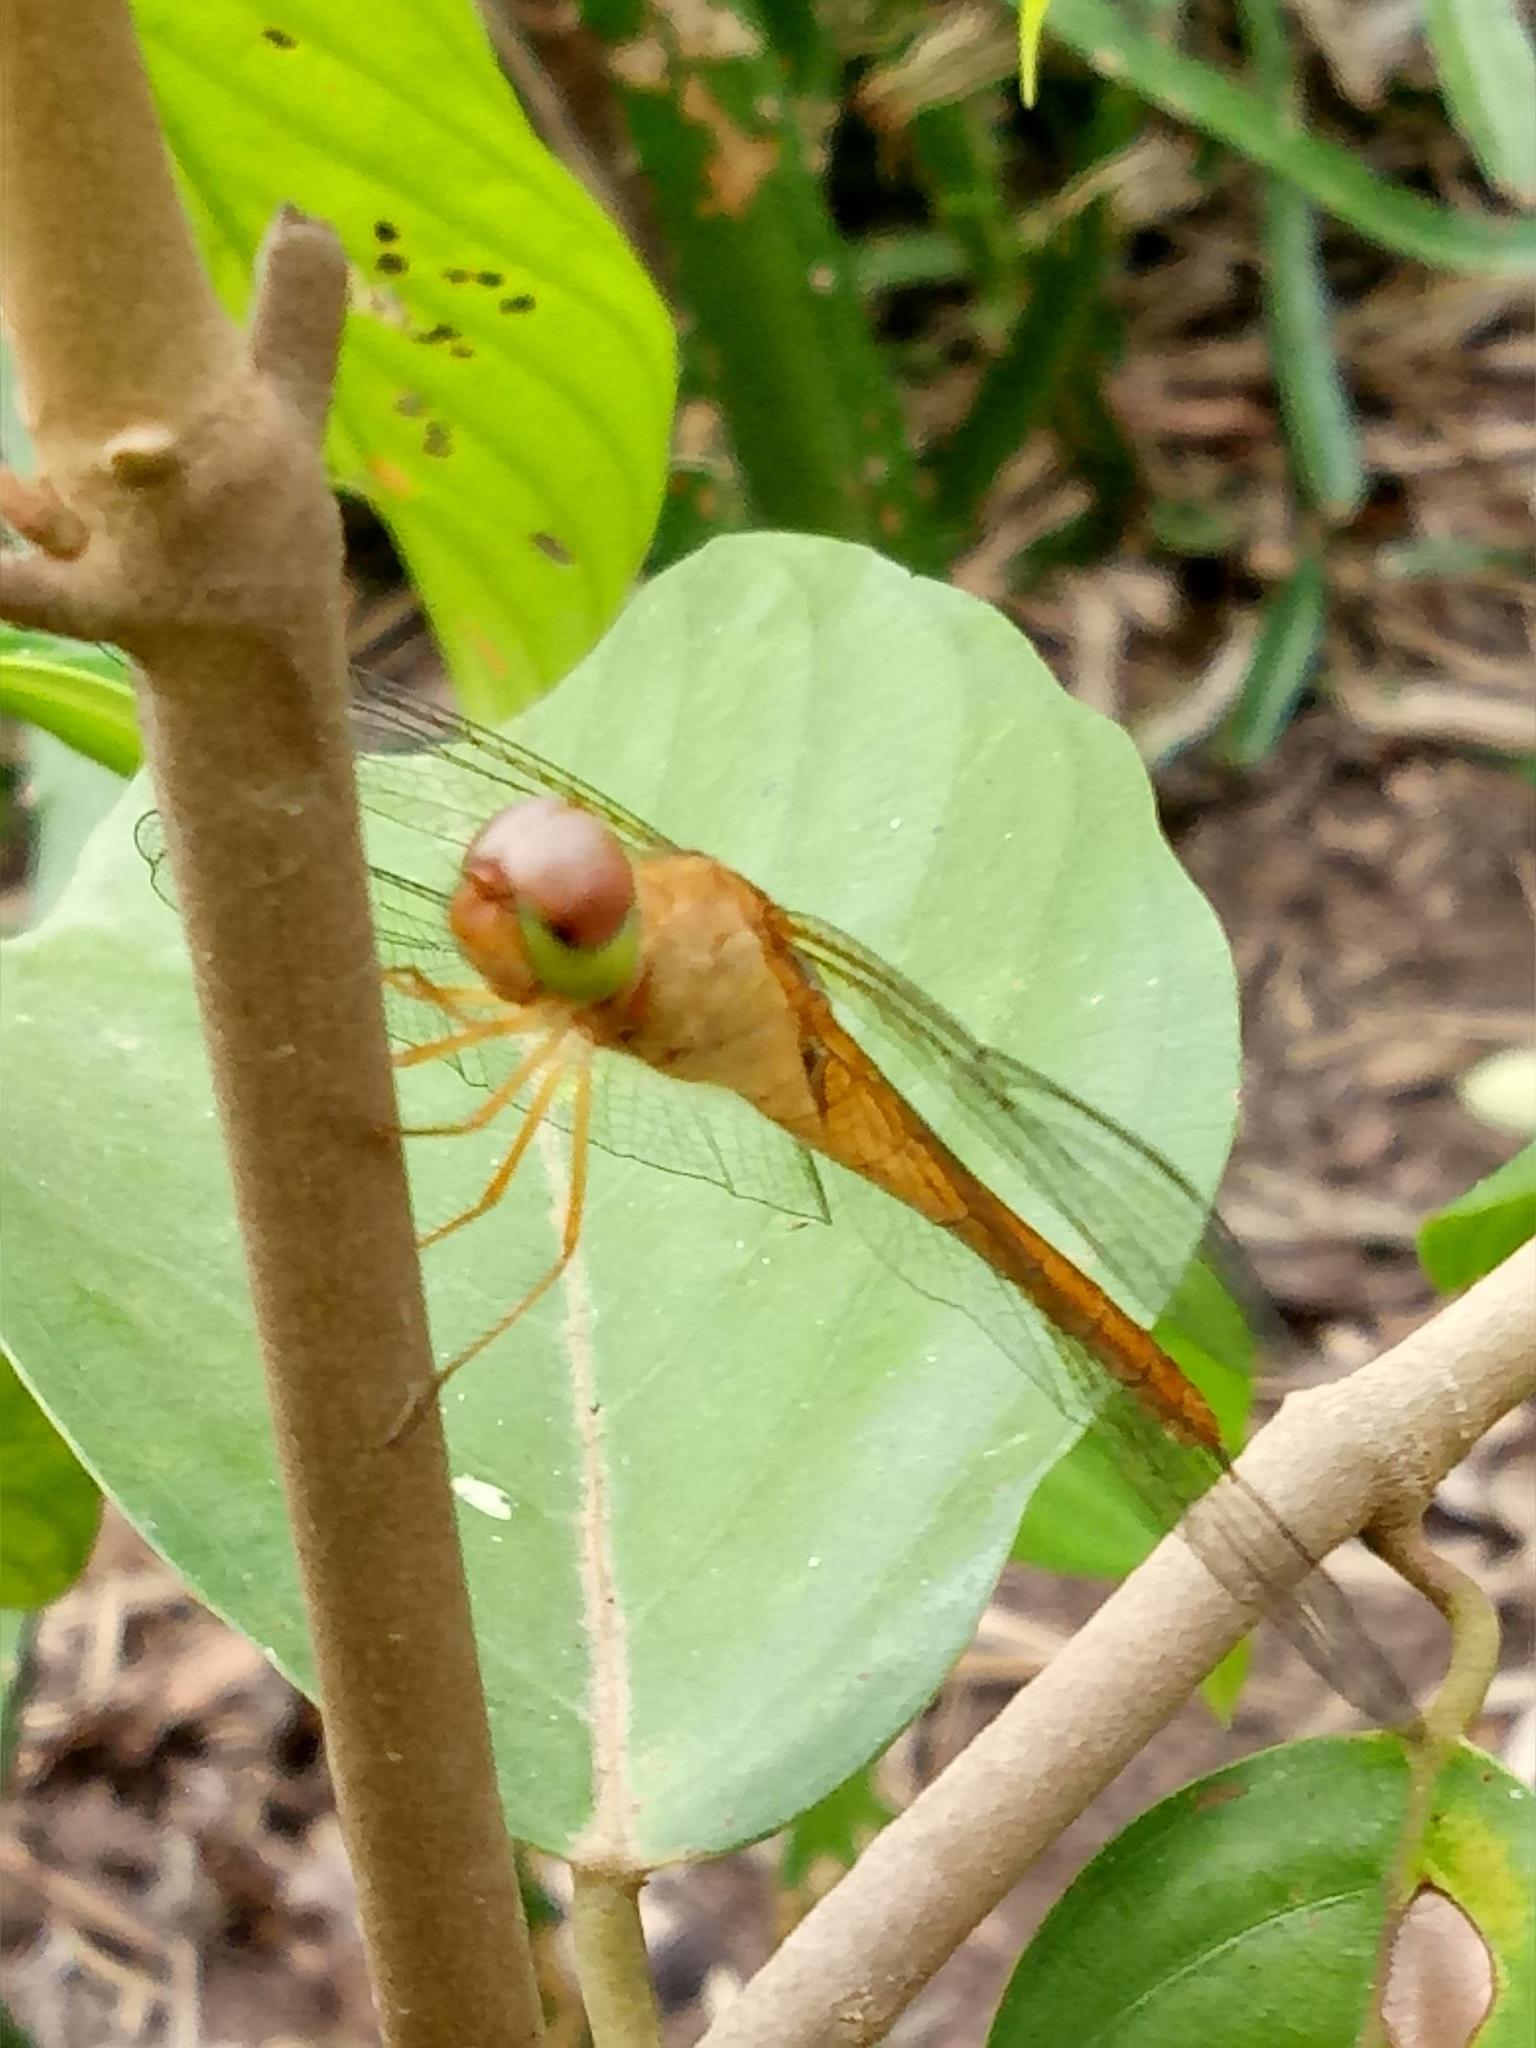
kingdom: Animalia
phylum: Arthropoda
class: Insecta
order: Odonata
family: Libellulidae
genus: Tholymis
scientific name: Tholymis tillarga
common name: Coral-tailed cloud wing
